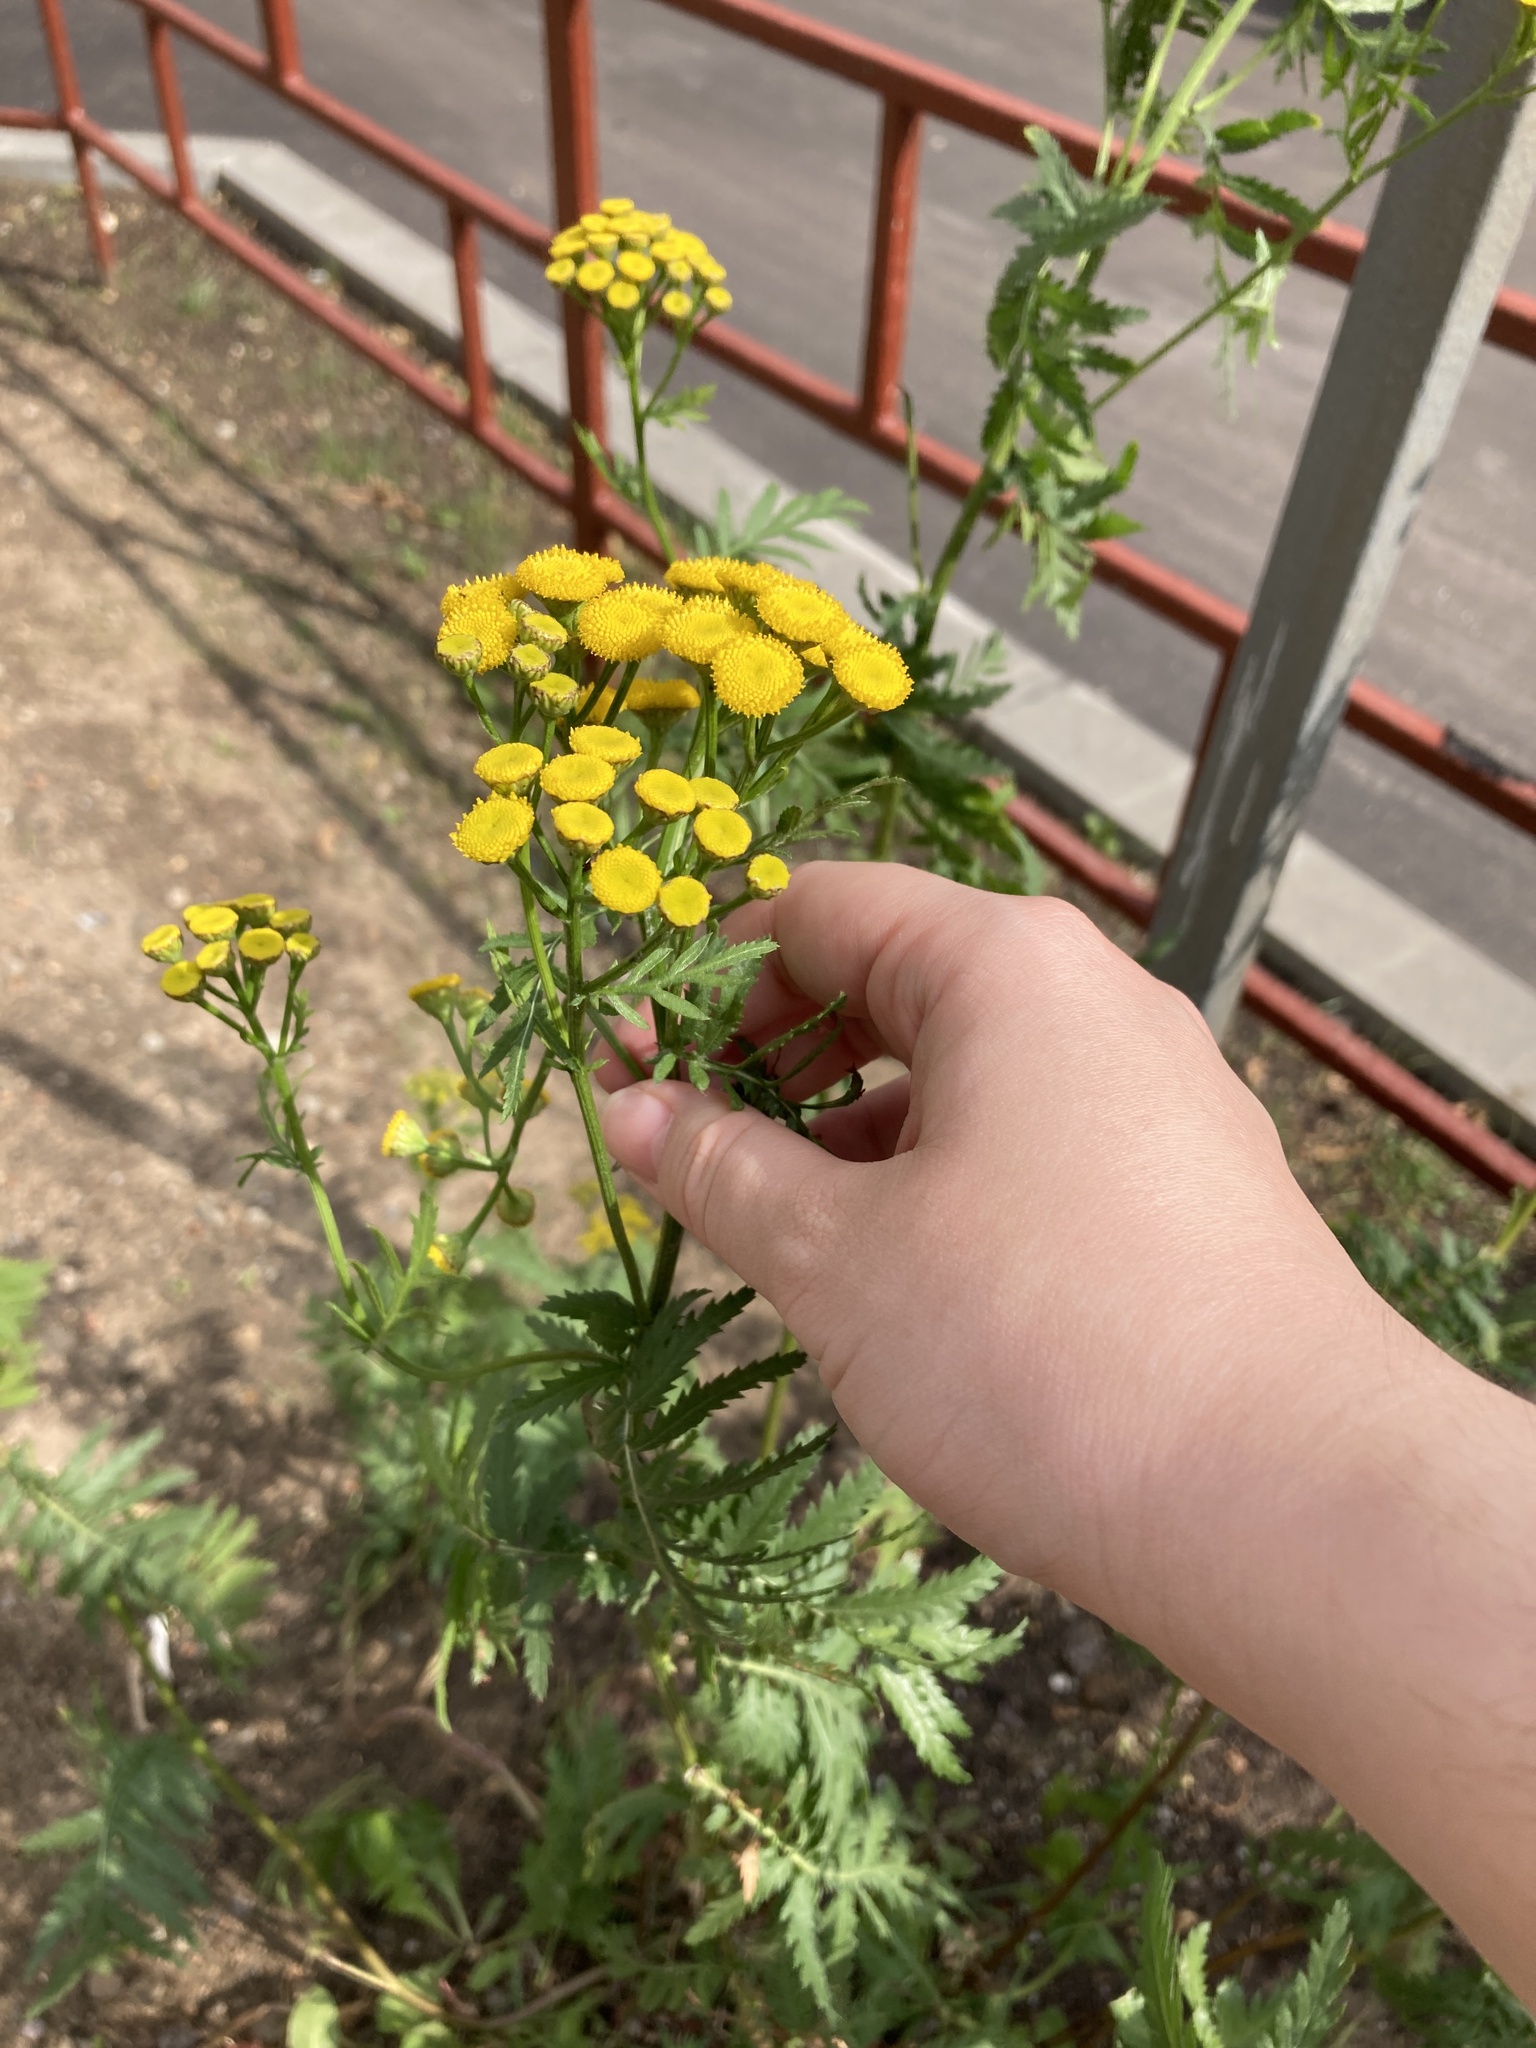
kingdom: Plantae
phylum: Tracheophyta
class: Magnoliopsida
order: Asterales
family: Asteraceae
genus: Tanacetum
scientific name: Tanacetum vulgare
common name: Common tansy
